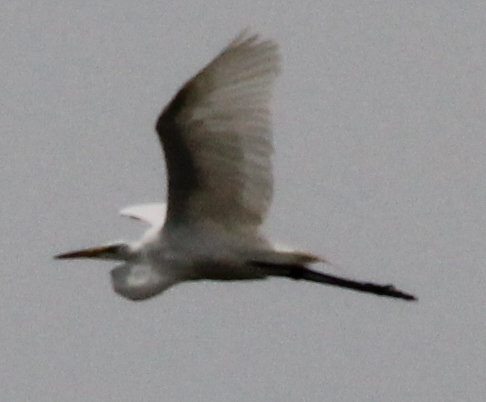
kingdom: Animalia
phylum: Chordata
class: Aves
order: Pelecaniformes
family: Ardeidae
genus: Ardea
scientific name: Ardea alba
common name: Great egret
